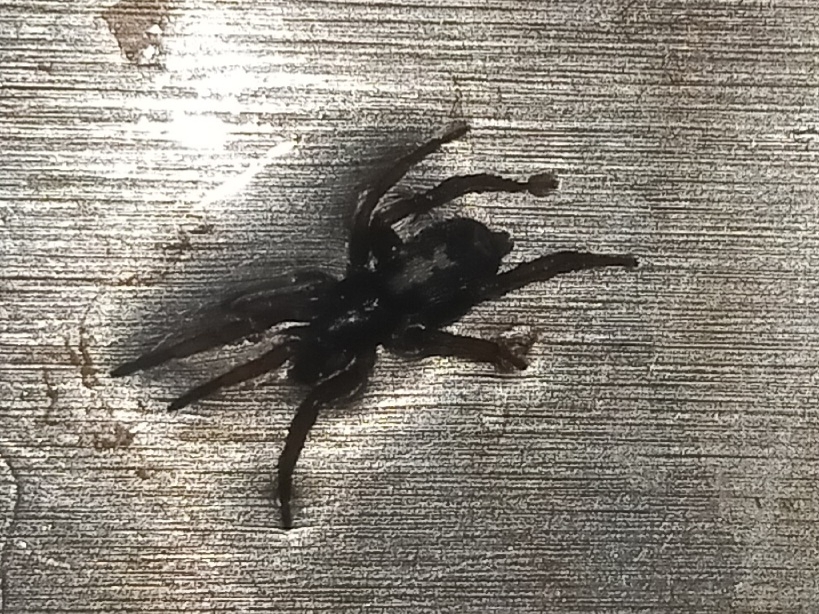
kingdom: Animalia
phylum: Arthropoda
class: Arachnida
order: Araneae
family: Gnaphosidae
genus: Herpyllus
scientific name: Herpyllus ecclesiasticus
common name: Eastern parson spider
